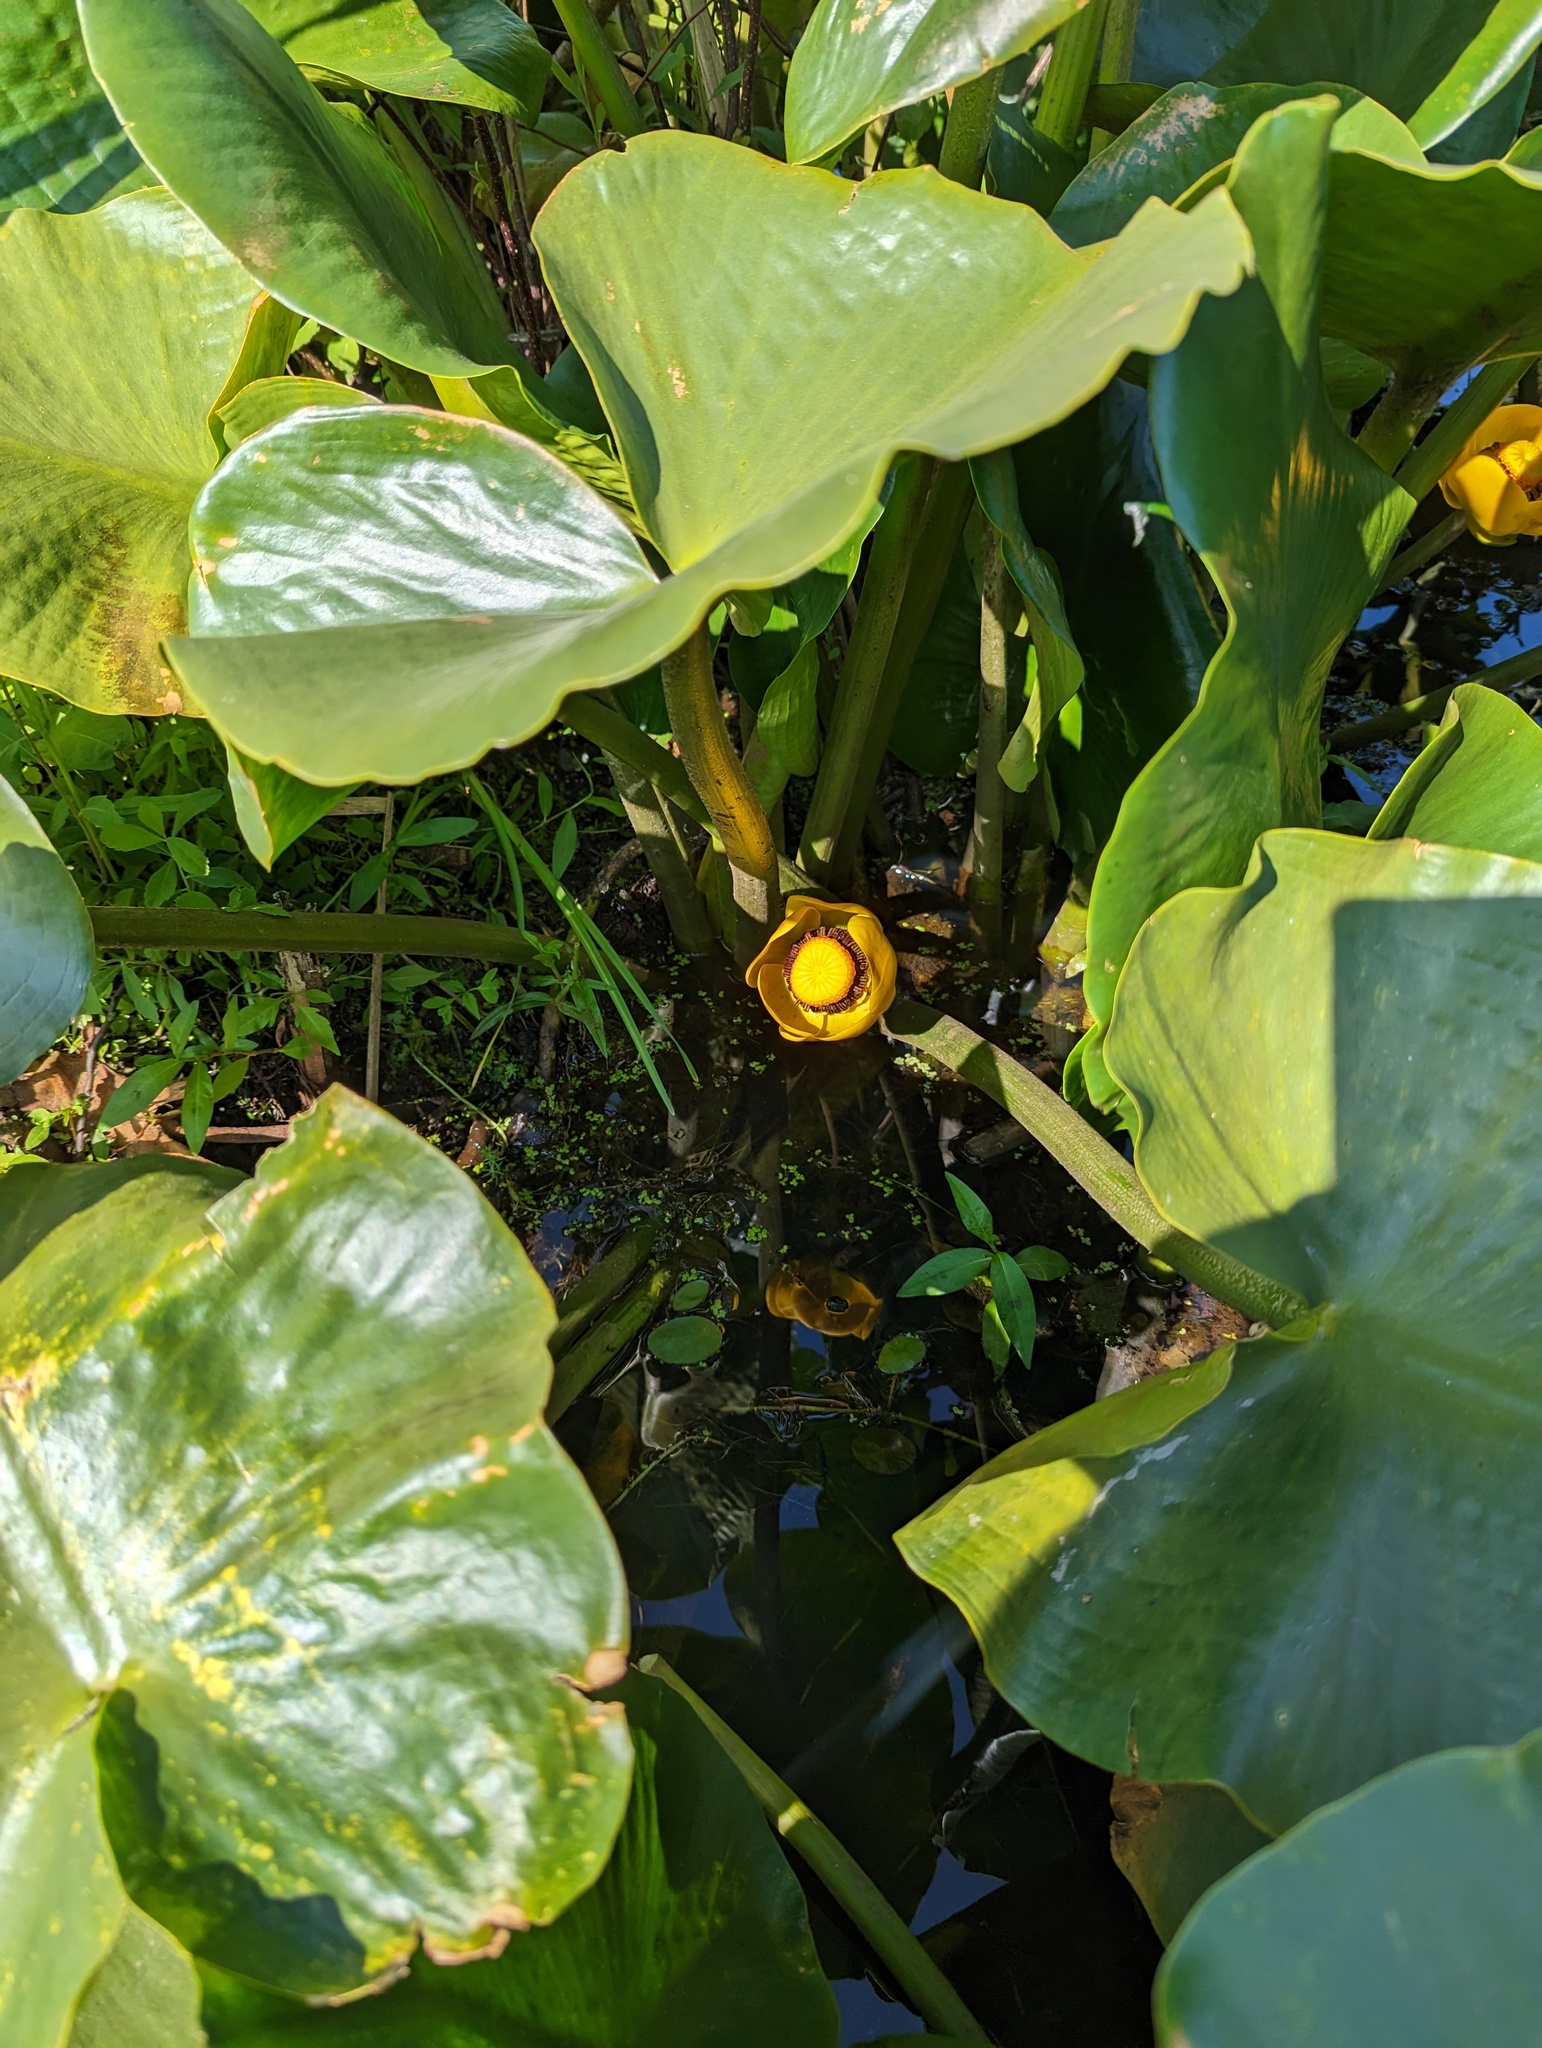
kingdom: Plantae
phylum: Tracheophyta
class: Magnoliopsida
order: Nymphaeales
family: Nymphaeaceae
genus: Nuphar
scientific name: Nuphar polysepala
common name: Rocky mountain cow-lily
